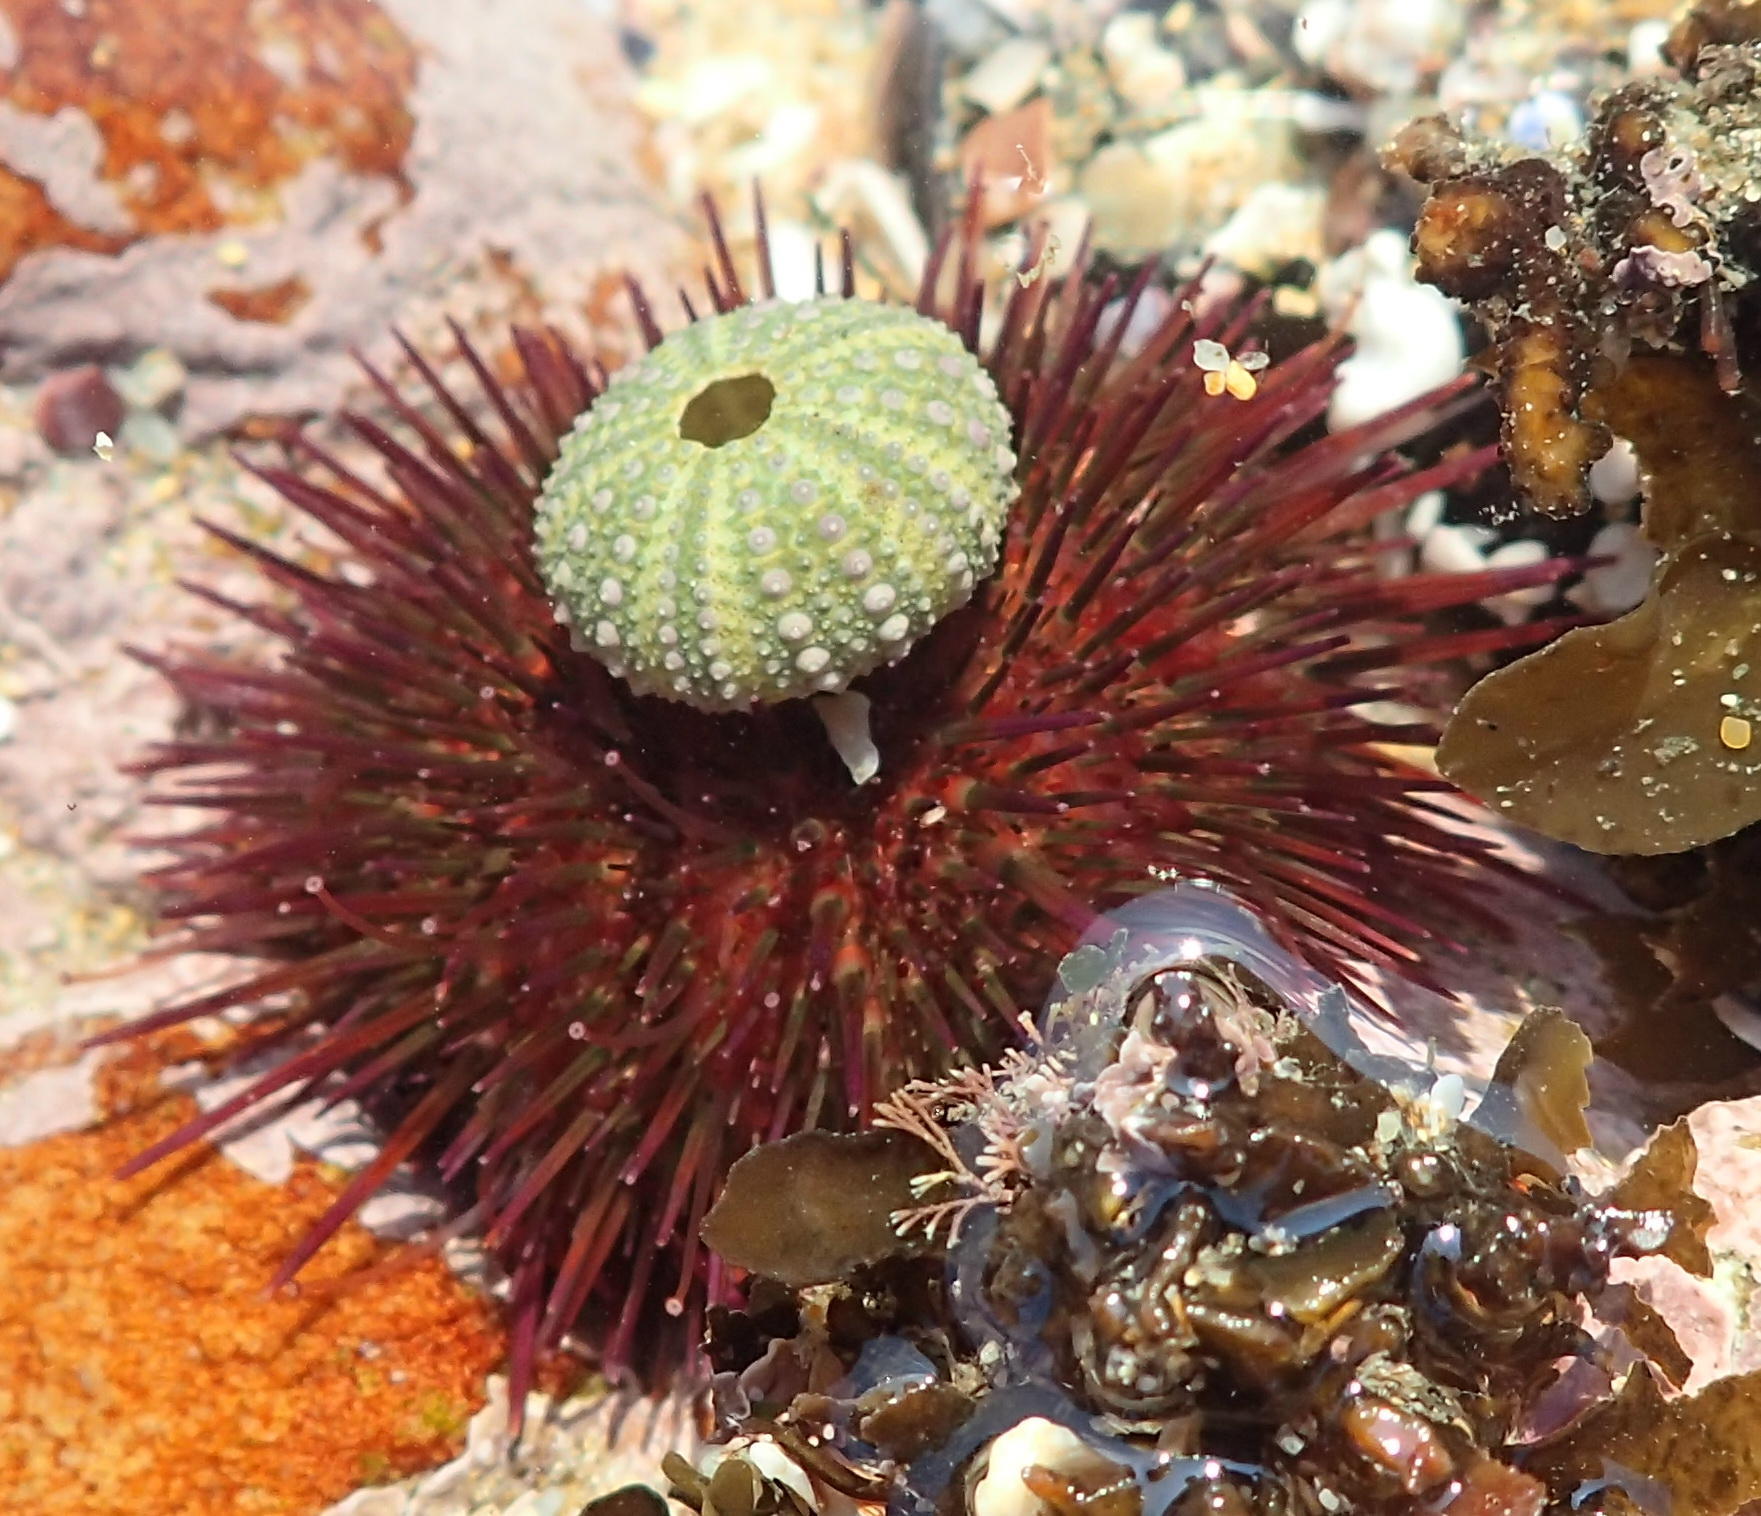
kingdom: Animalia
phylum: Echinodermata
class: Echinoidea
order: Camarodonta
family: Parechinidae
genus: Parechinus
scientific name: Parechinus angulosus
